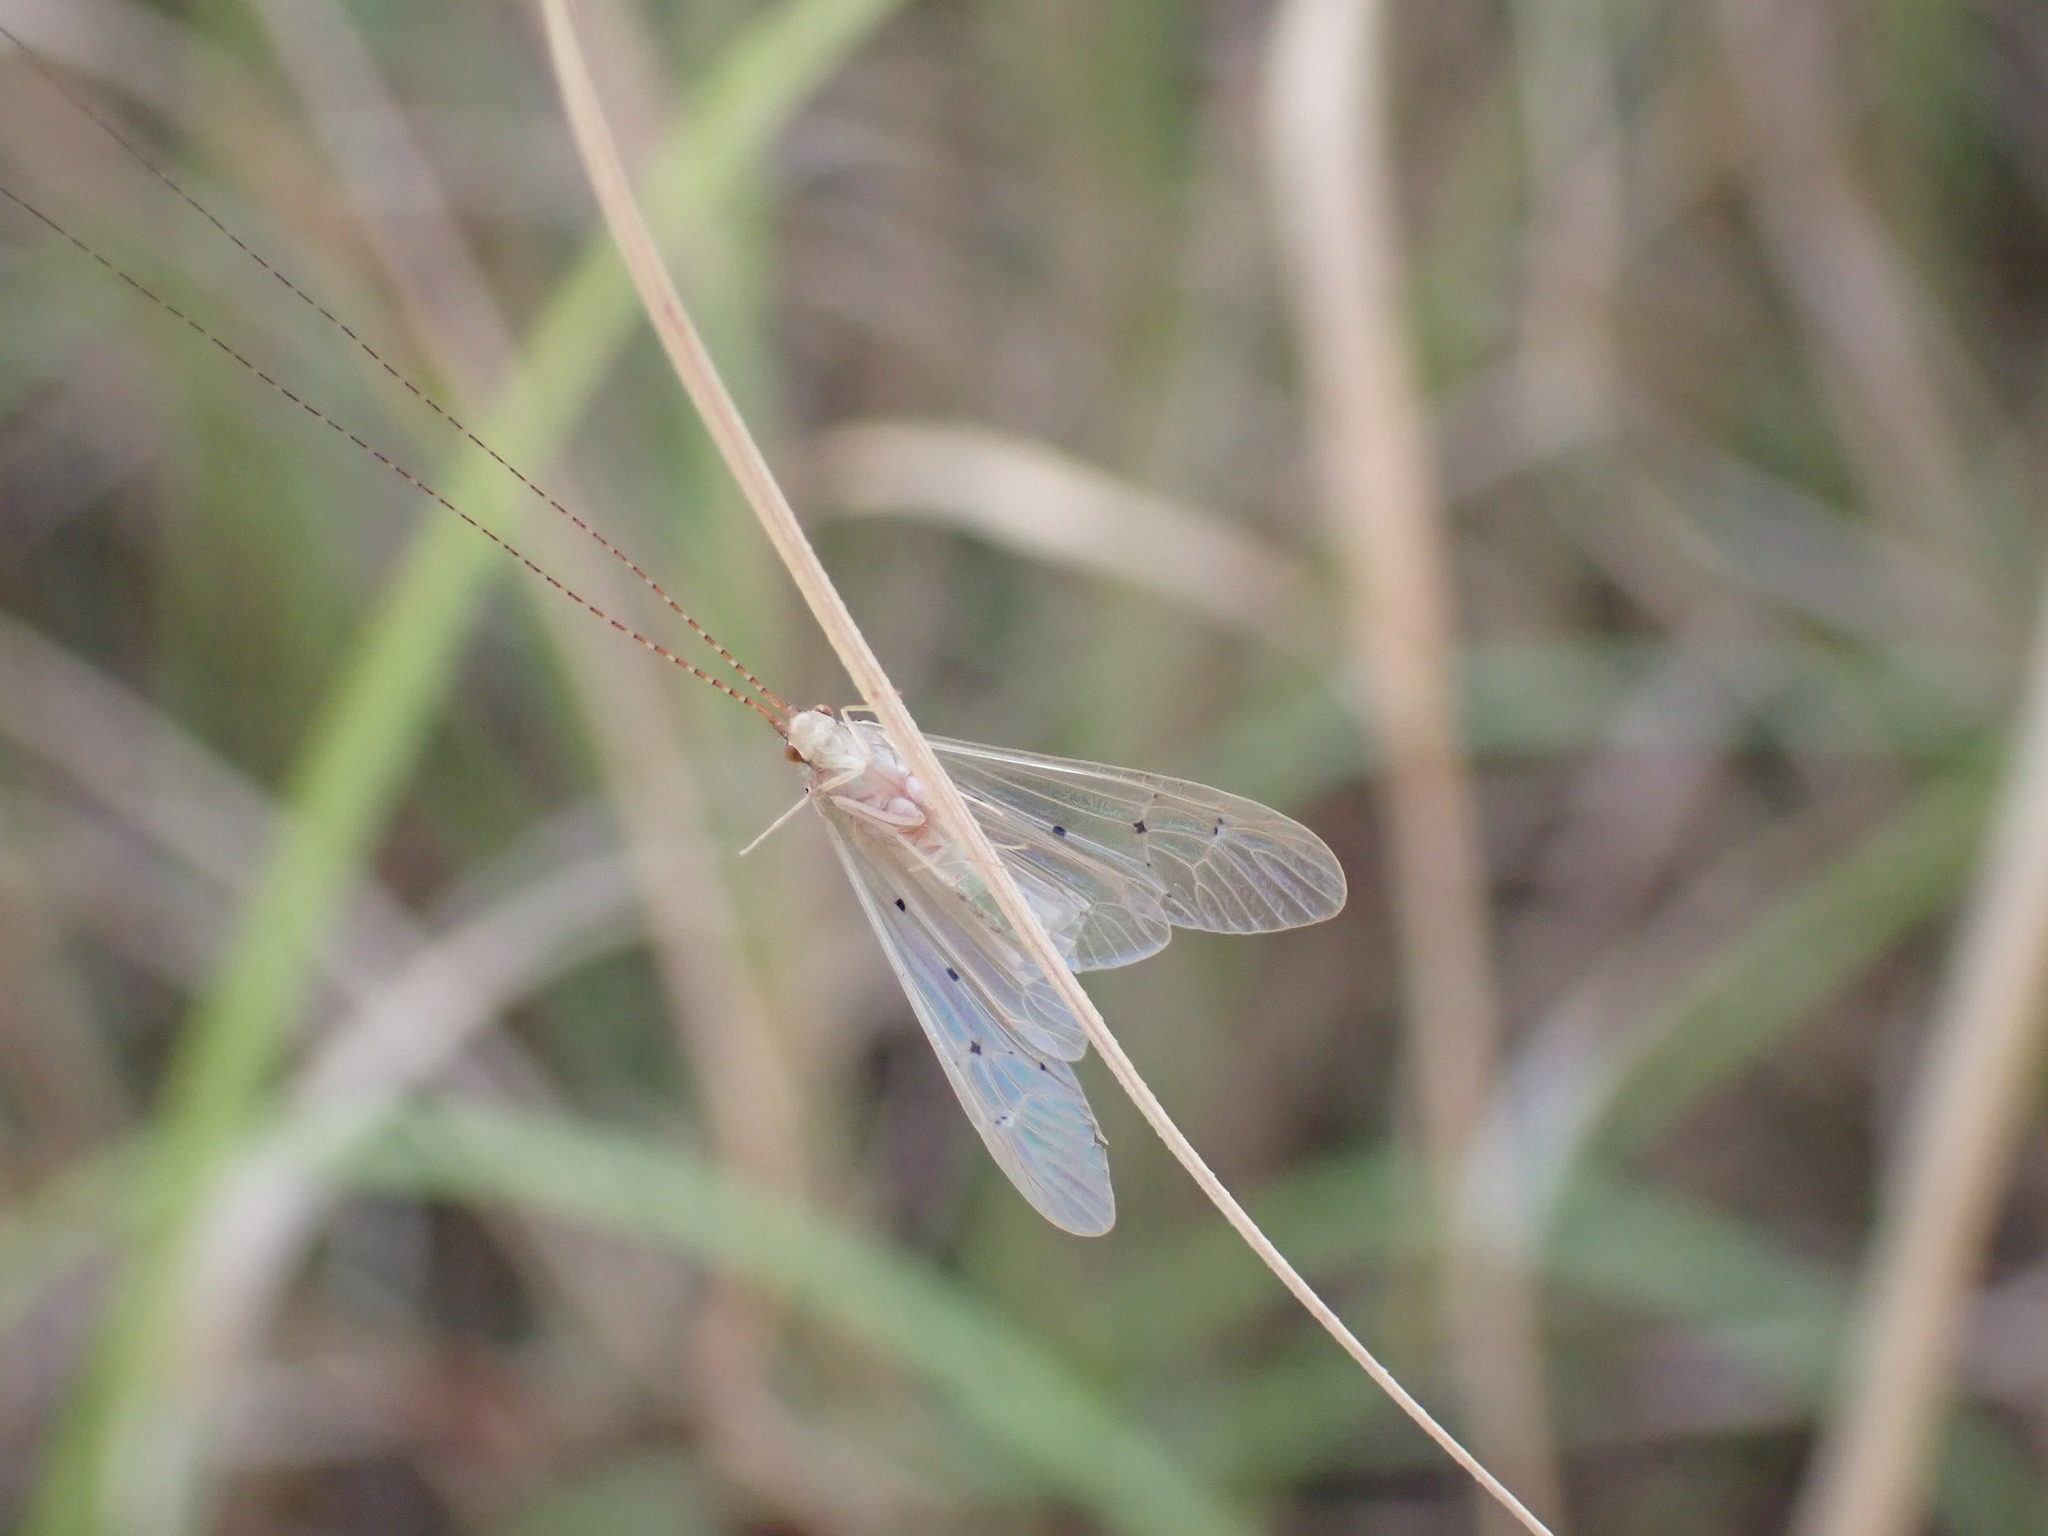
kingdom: Animalia
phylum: Arthropoda
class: Insecta
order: Trichoptera
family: Hydropsychidae
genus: Aethaloptera
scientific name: Aethaloptera sexpunctata
